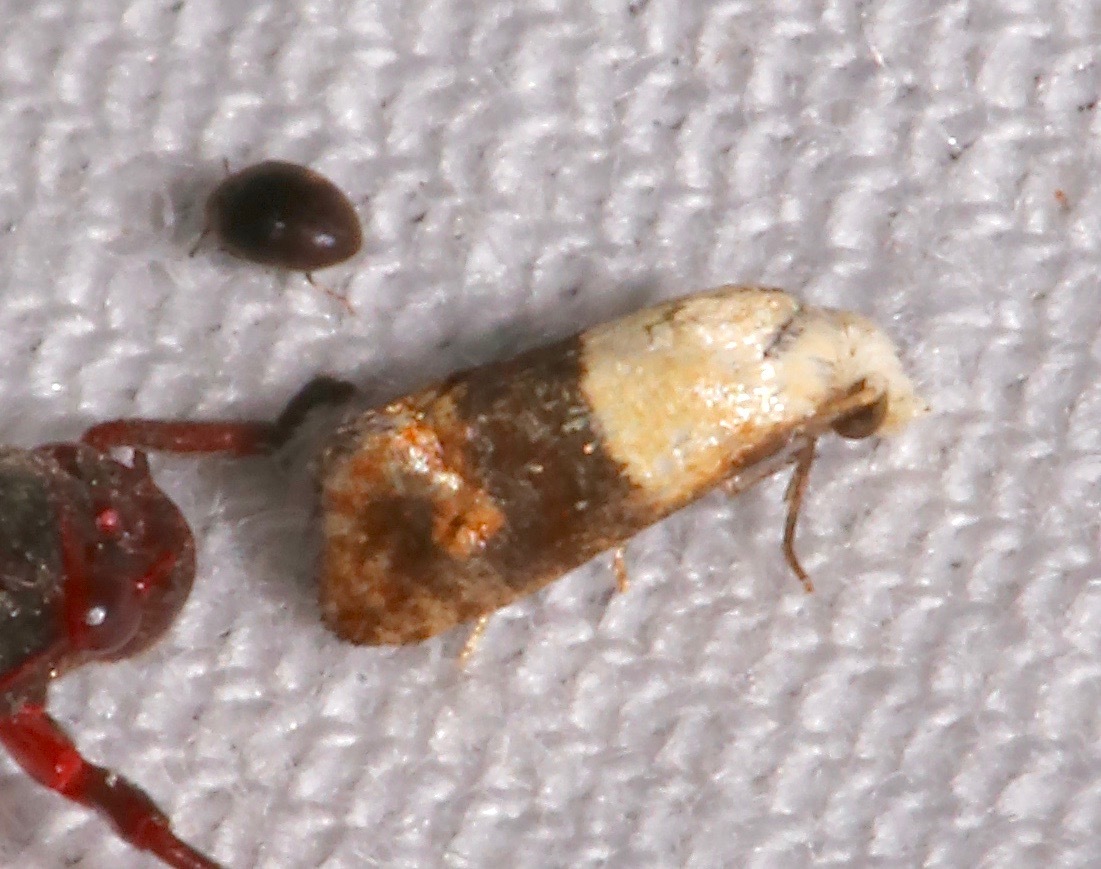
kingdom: Animalia
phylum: Arthropoda
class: Insecta
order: Lepidoptera
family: Tortricidae
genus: Eugnosta
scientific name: Eugnosta erigeronana
